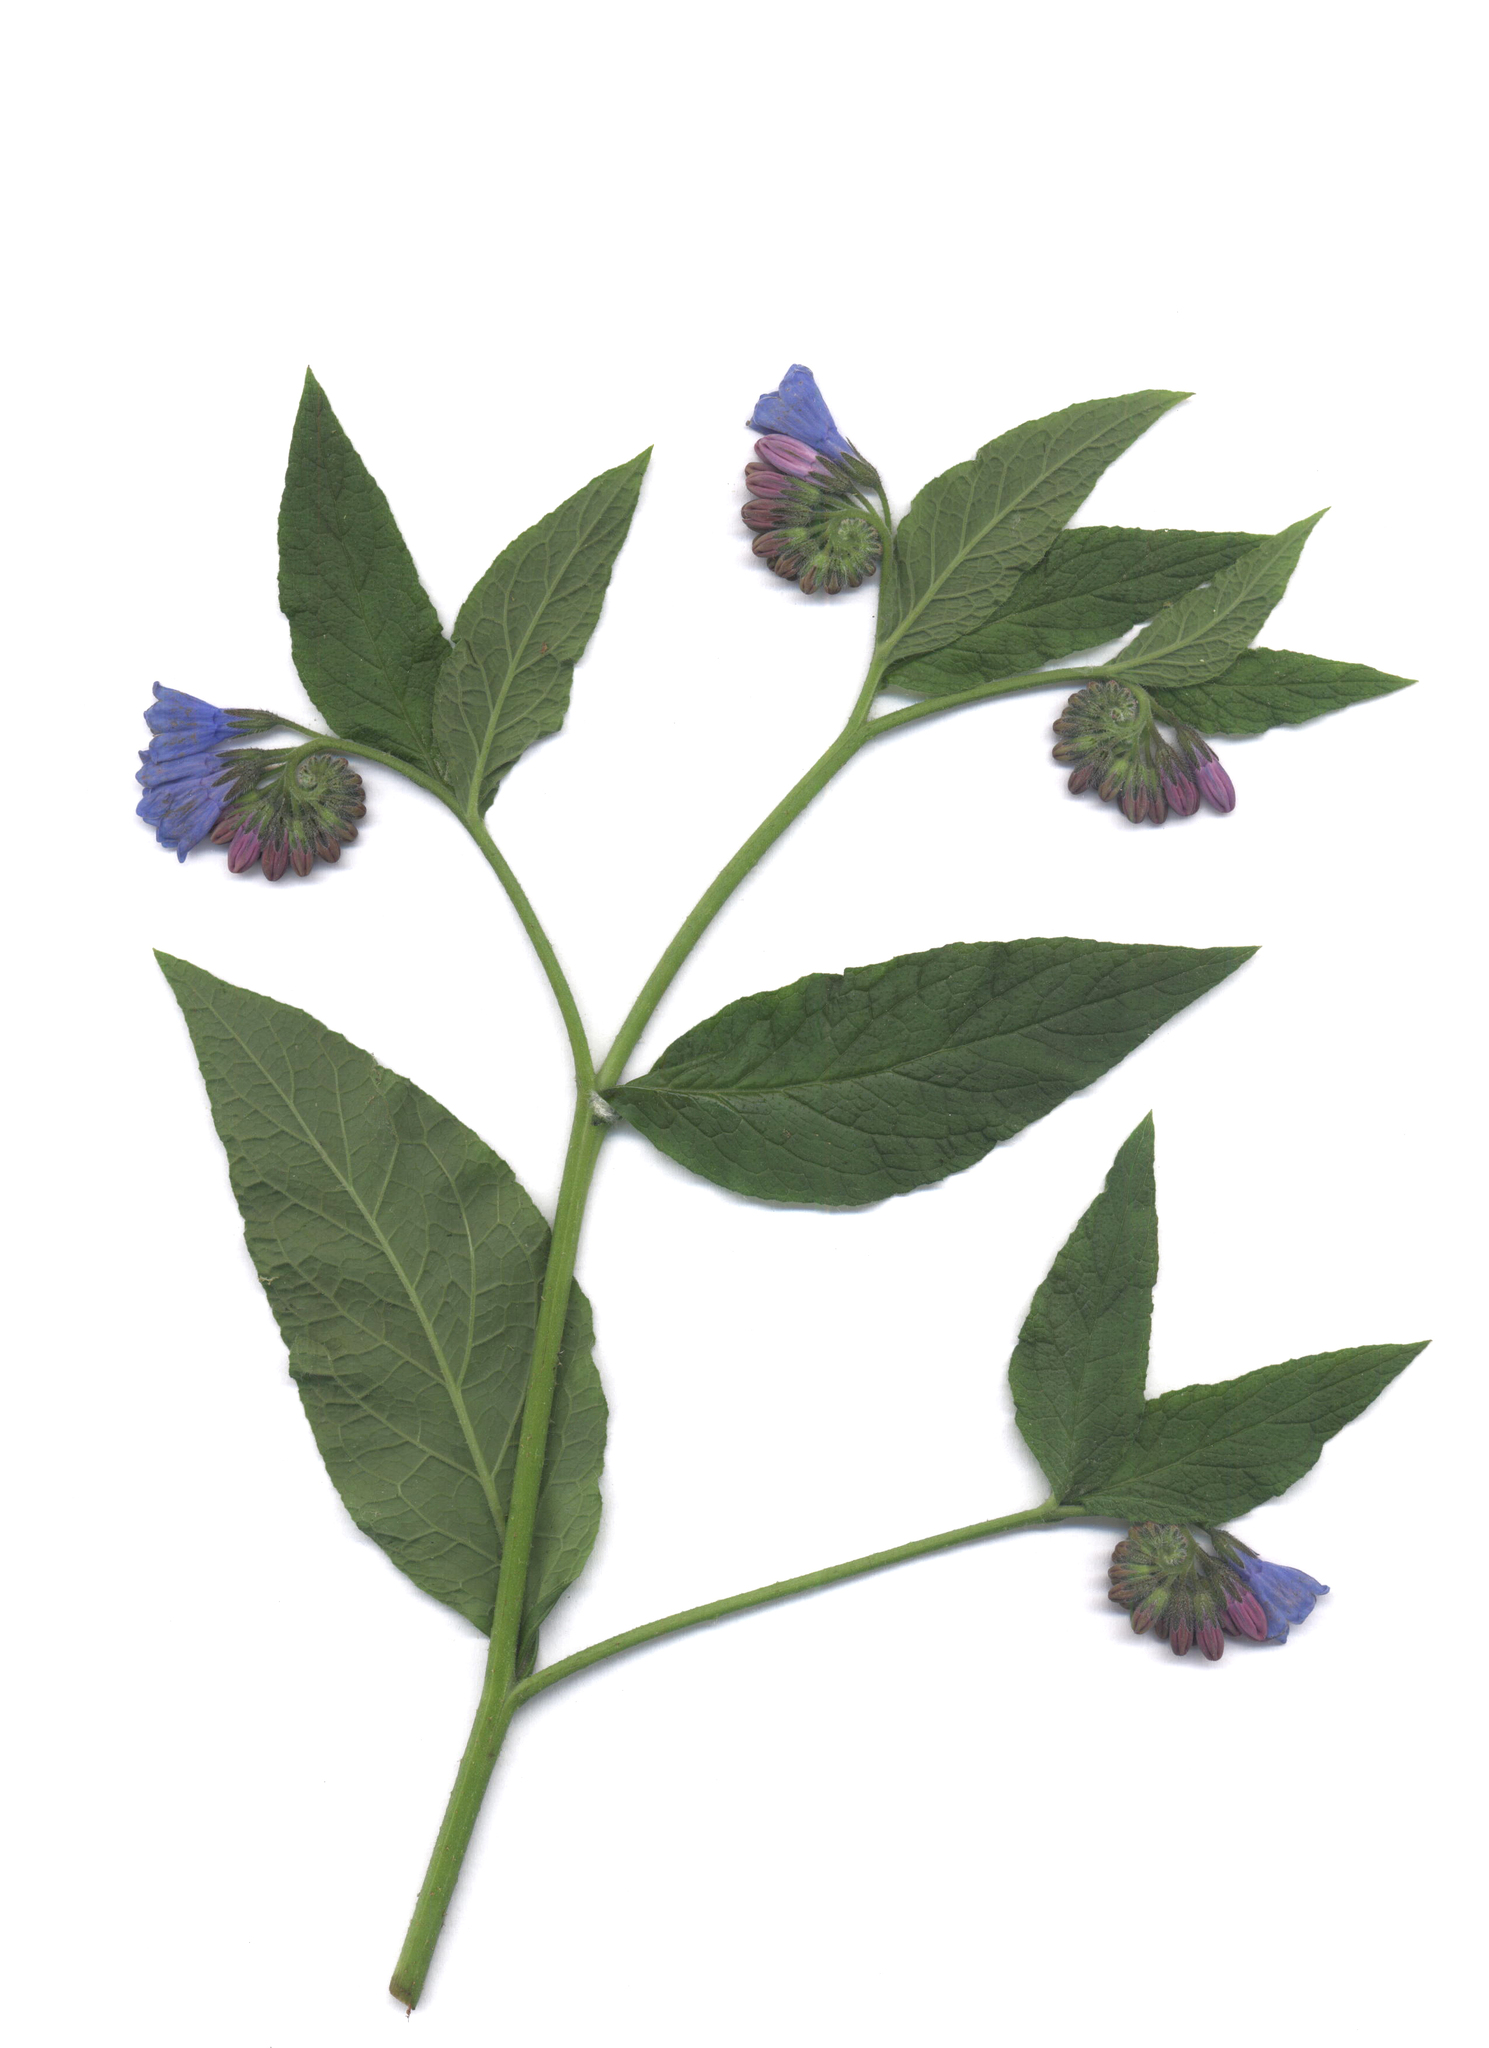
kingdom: Plantae
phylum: Tracheophyta
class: Magnoliopsida
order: Boraginales
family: Boraginaceae
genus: Symphytum
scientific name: Symphytum asperum
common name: Prickly comfrey
